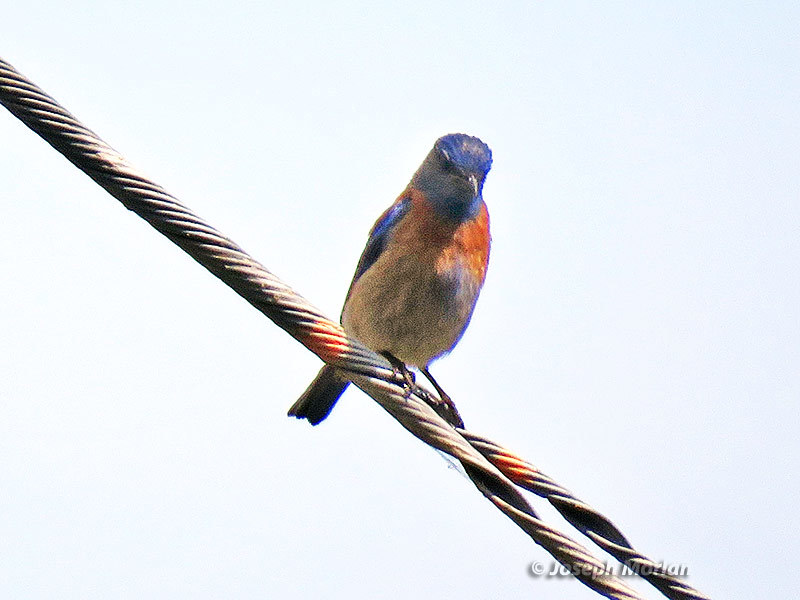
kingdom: Animalia
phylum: Chordata
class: Aves
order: Passeriformes
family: Turdidae
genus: Sialia
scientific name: Sialia mexicana
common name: Western bluebird
